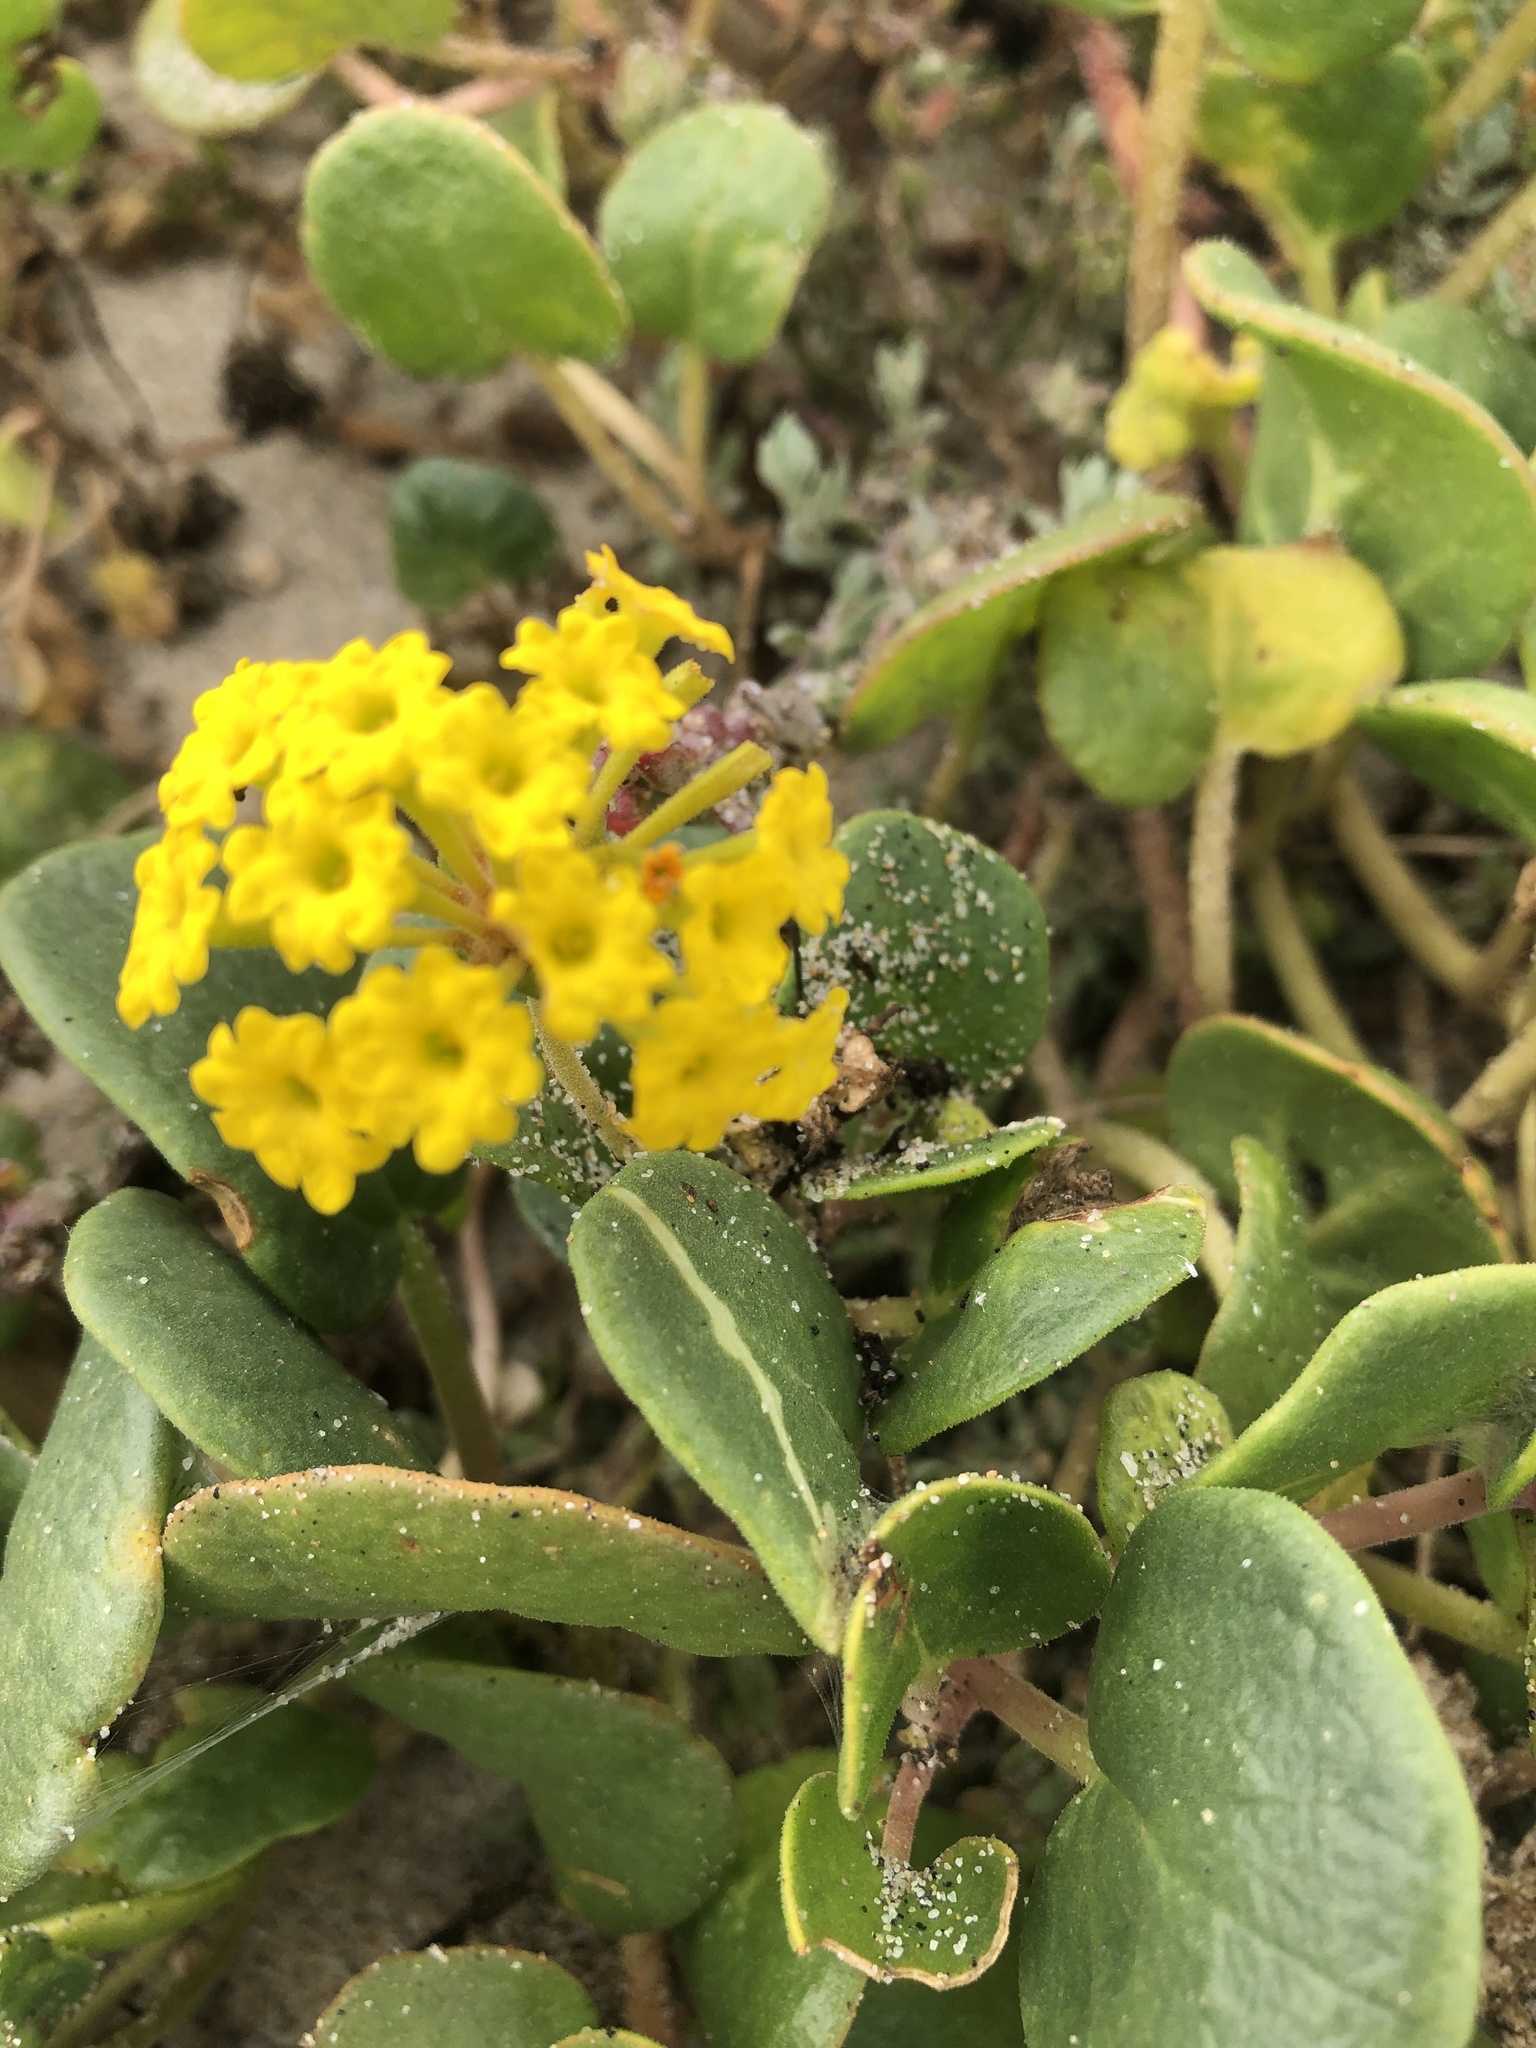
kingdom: Plantae
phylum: Tracheophyta
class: Magnoliopsida
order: Caryophyllales
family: Nyctaginaceae
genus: Abronia
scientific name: Abronia latifolia
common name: Yellow sand-verbena
